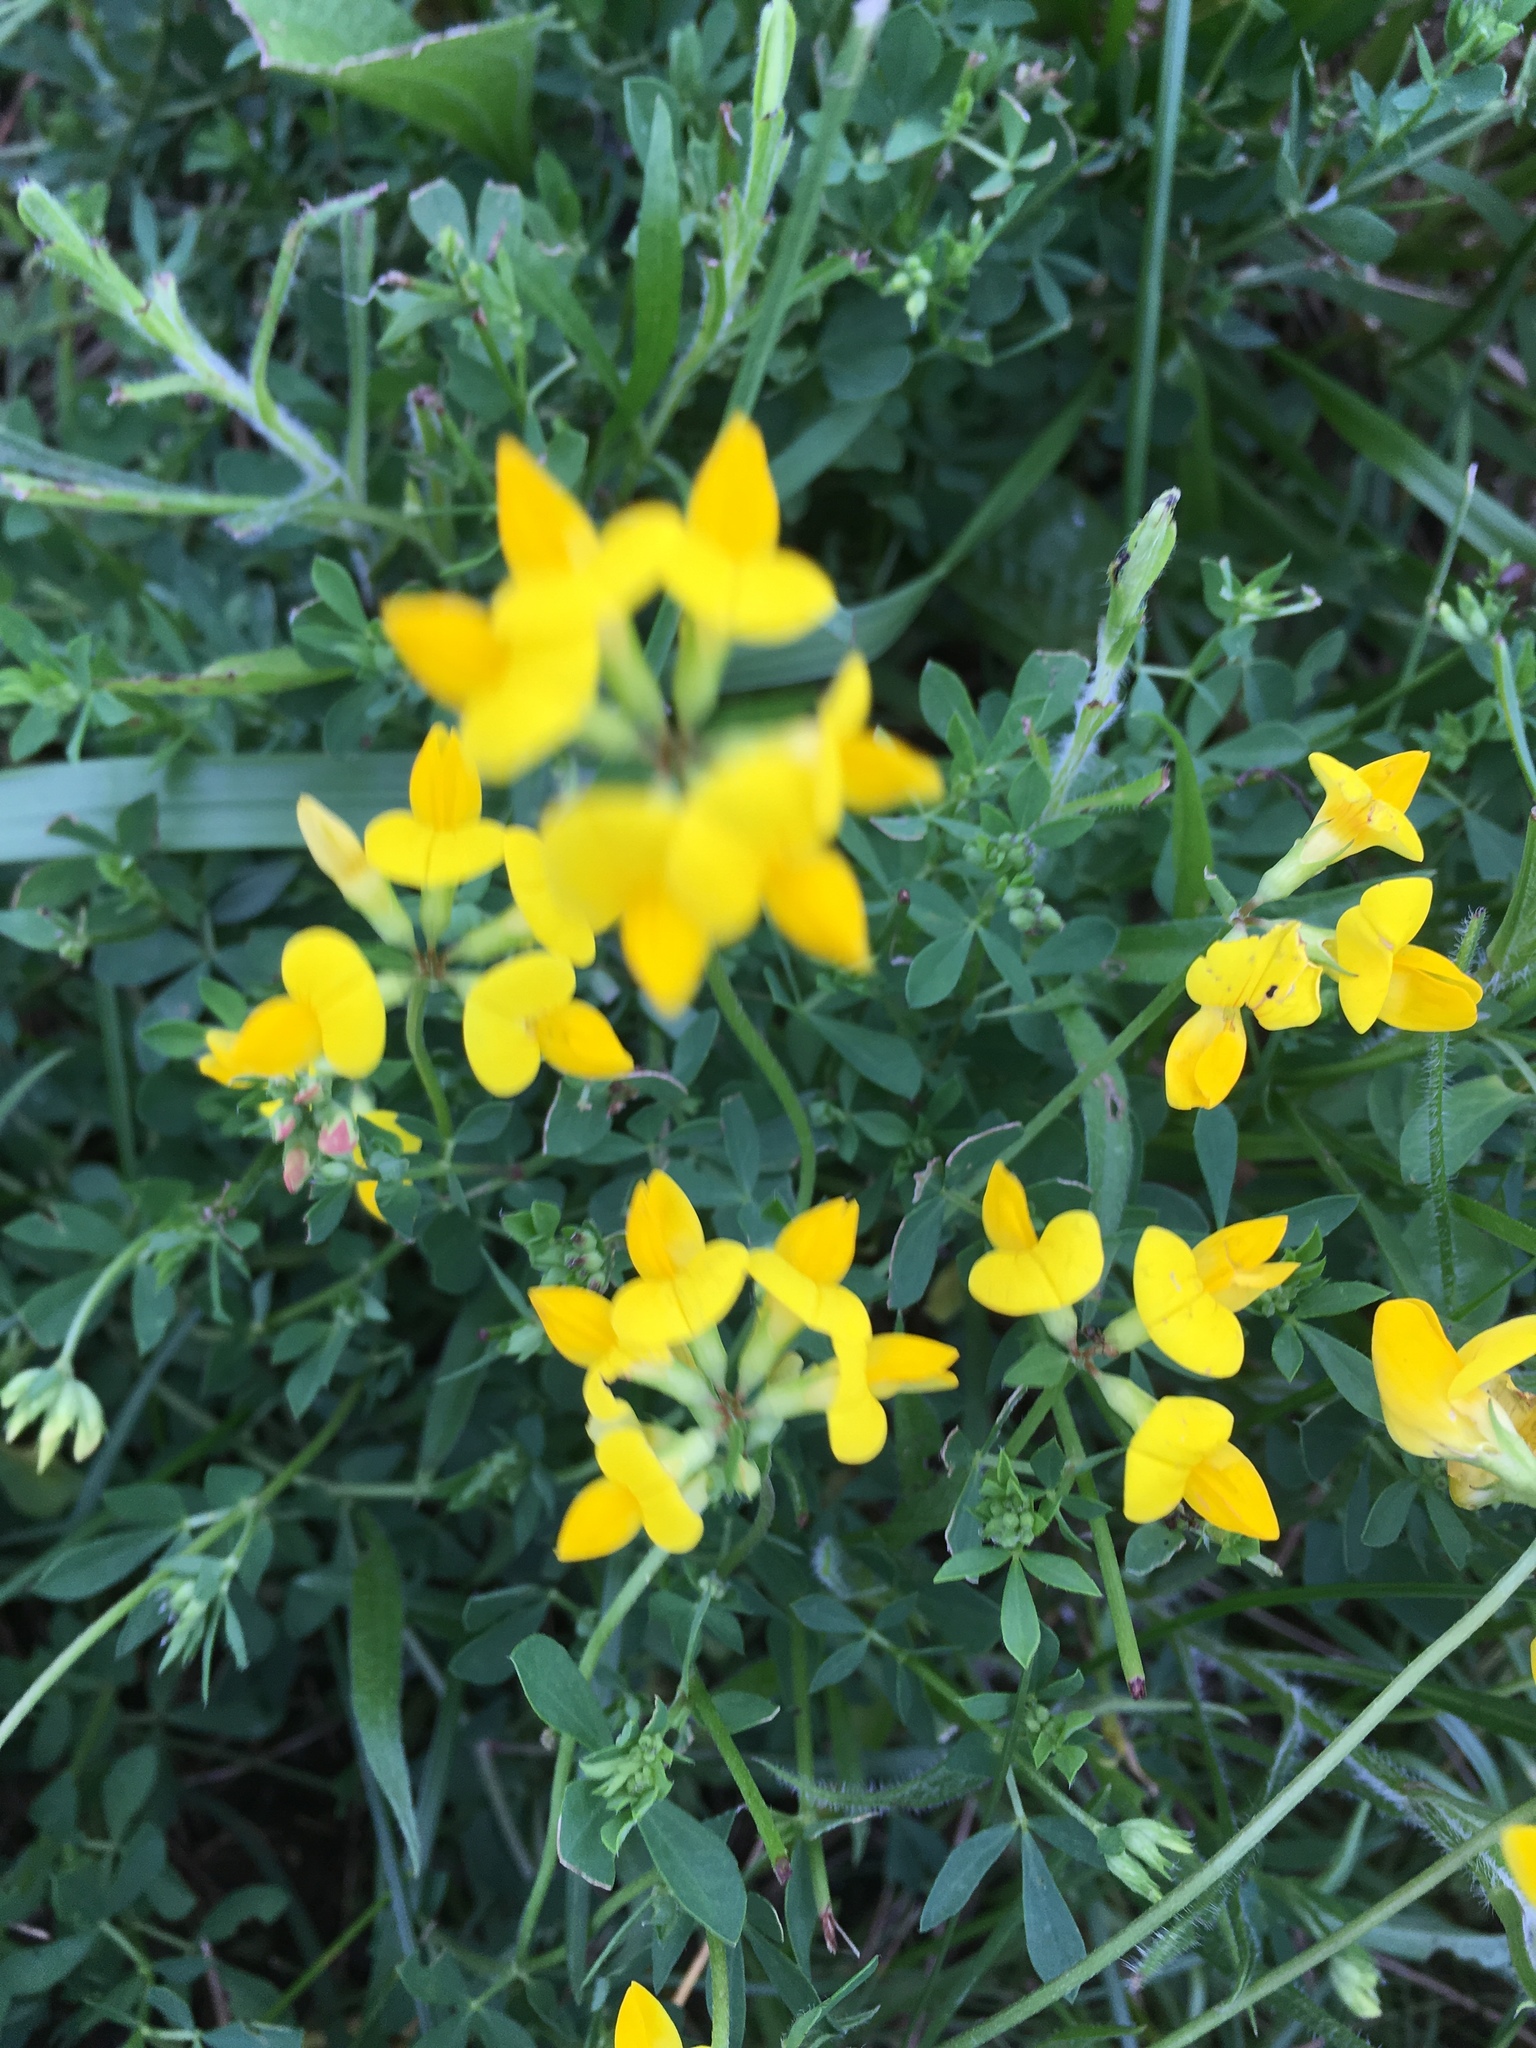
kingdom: Plantae
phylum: Tracheophyta
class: Magnoliopsida
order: Fabales
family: Fabaceae
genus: Lotus
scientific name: Lotus corniculatus
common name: Common bird's-foot-trefoil
